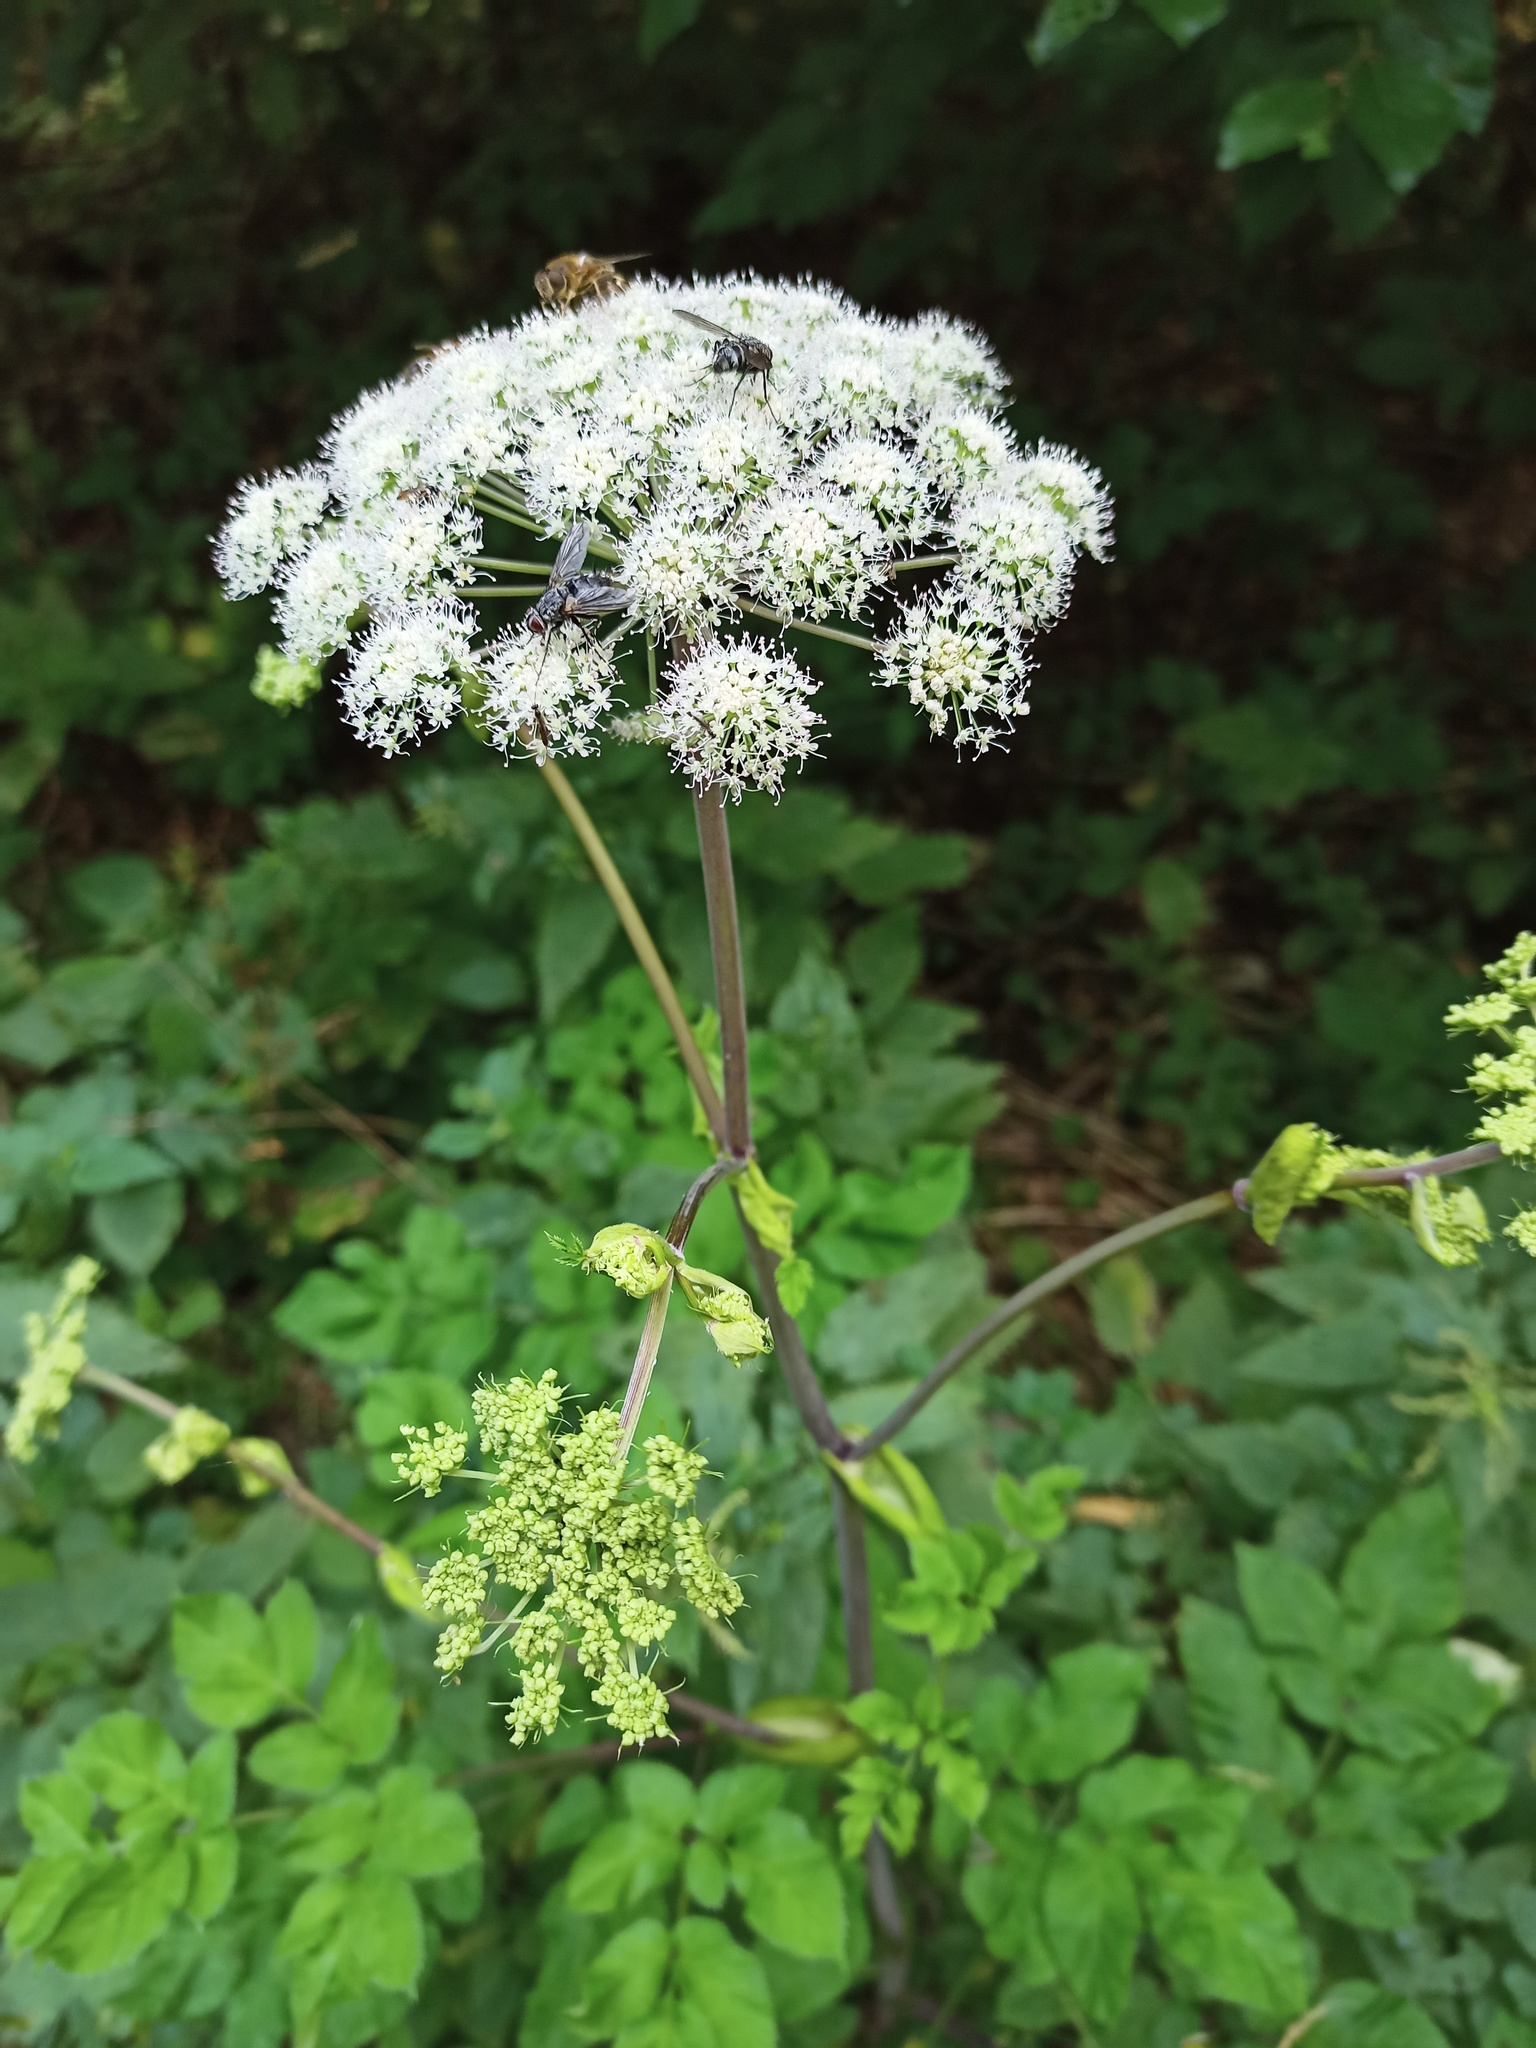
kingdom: Plantae
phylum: Tracheophyta
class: Magnoliopsida
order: Apiales
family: Apiaceae
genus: Angelica
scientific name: Angelica sylvestris
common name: Wild angelica
